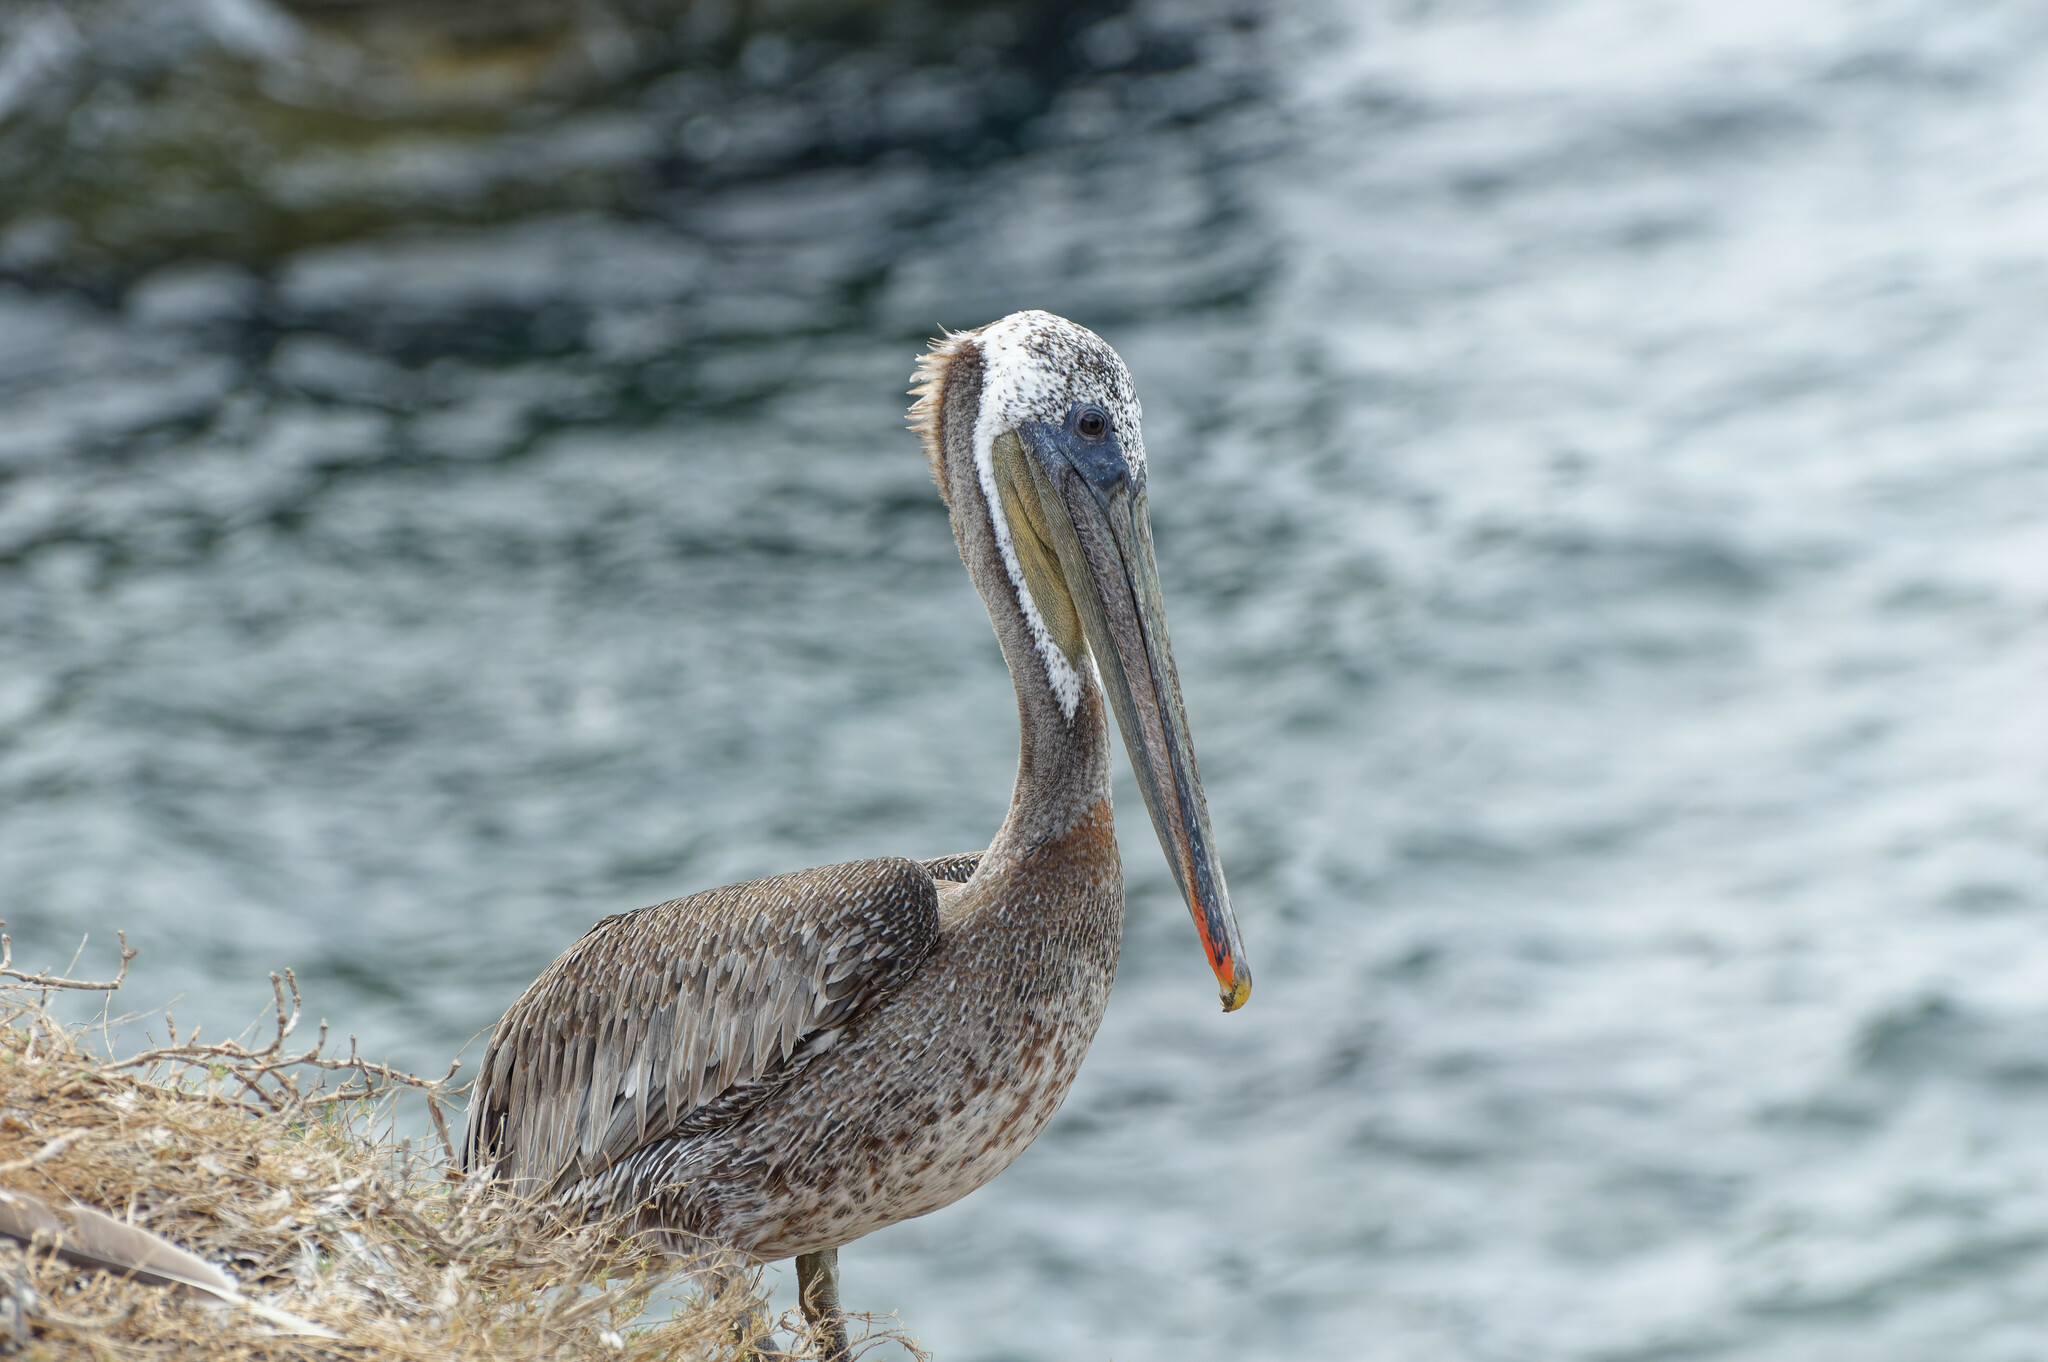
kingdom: Animalia
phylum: Chordata
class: Aves
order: Pelecaniformes
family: Pelecanidae
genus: Pelecanus
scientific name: Pelecanus occidentalis
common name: Brown pelican
